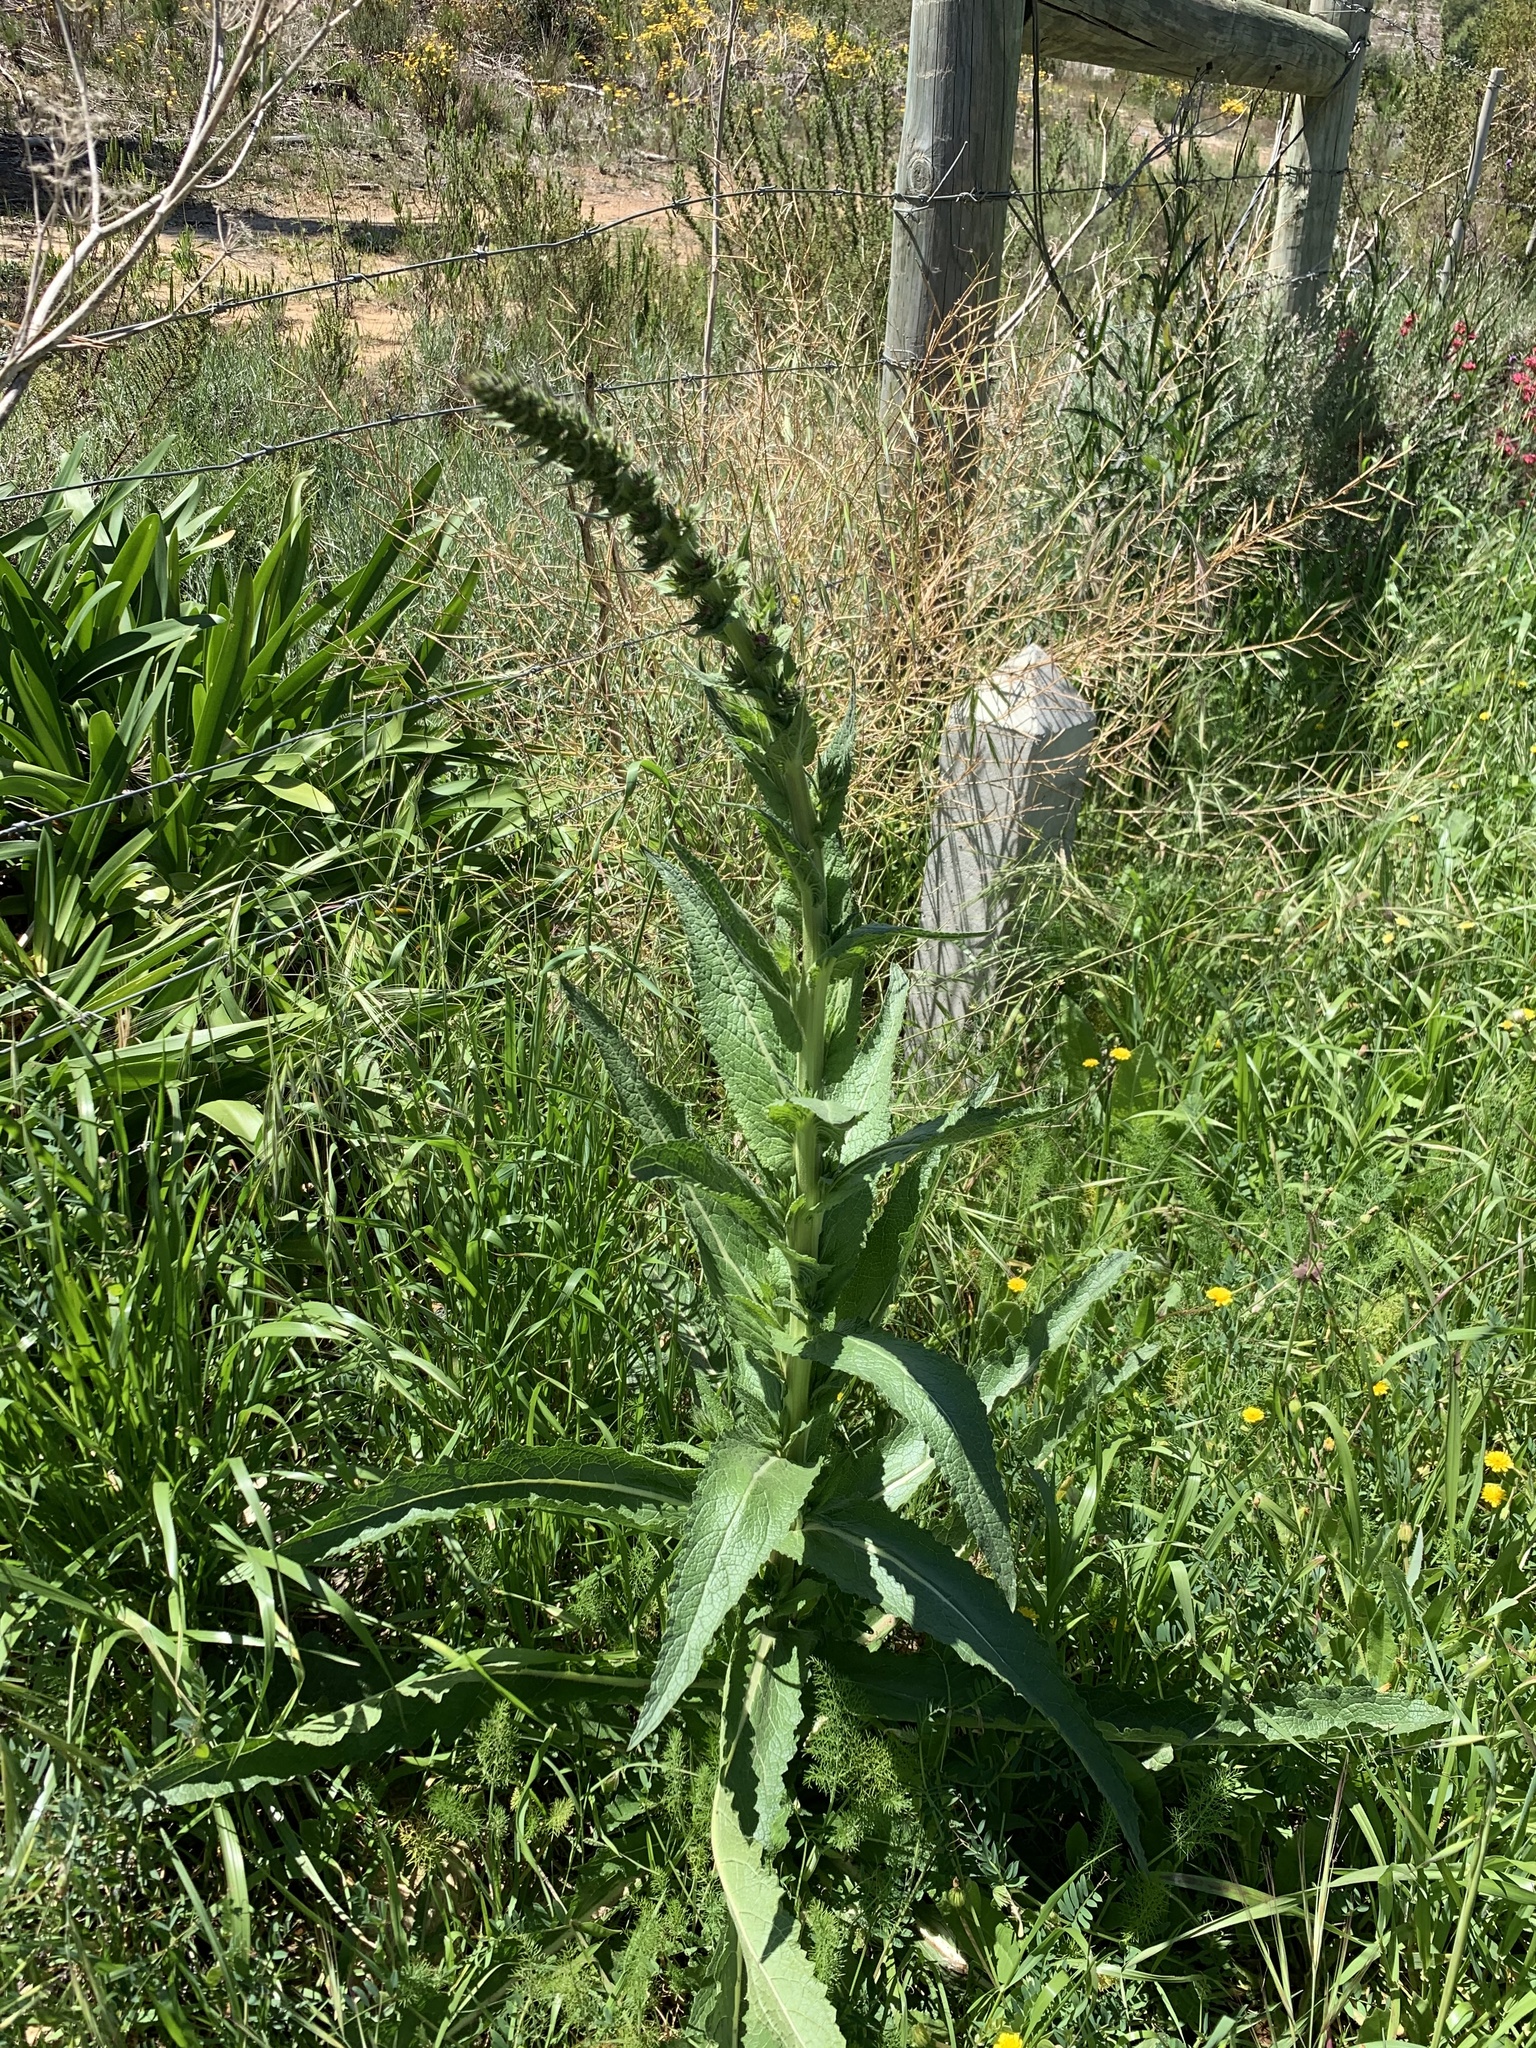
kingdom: Plantae
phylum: Tracheophyta
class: Magnoliopsida
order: Lamiales
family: Scrophulariaceae
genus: Verbascum
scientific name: Verbascum virgatum
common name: Twiggy mullein
